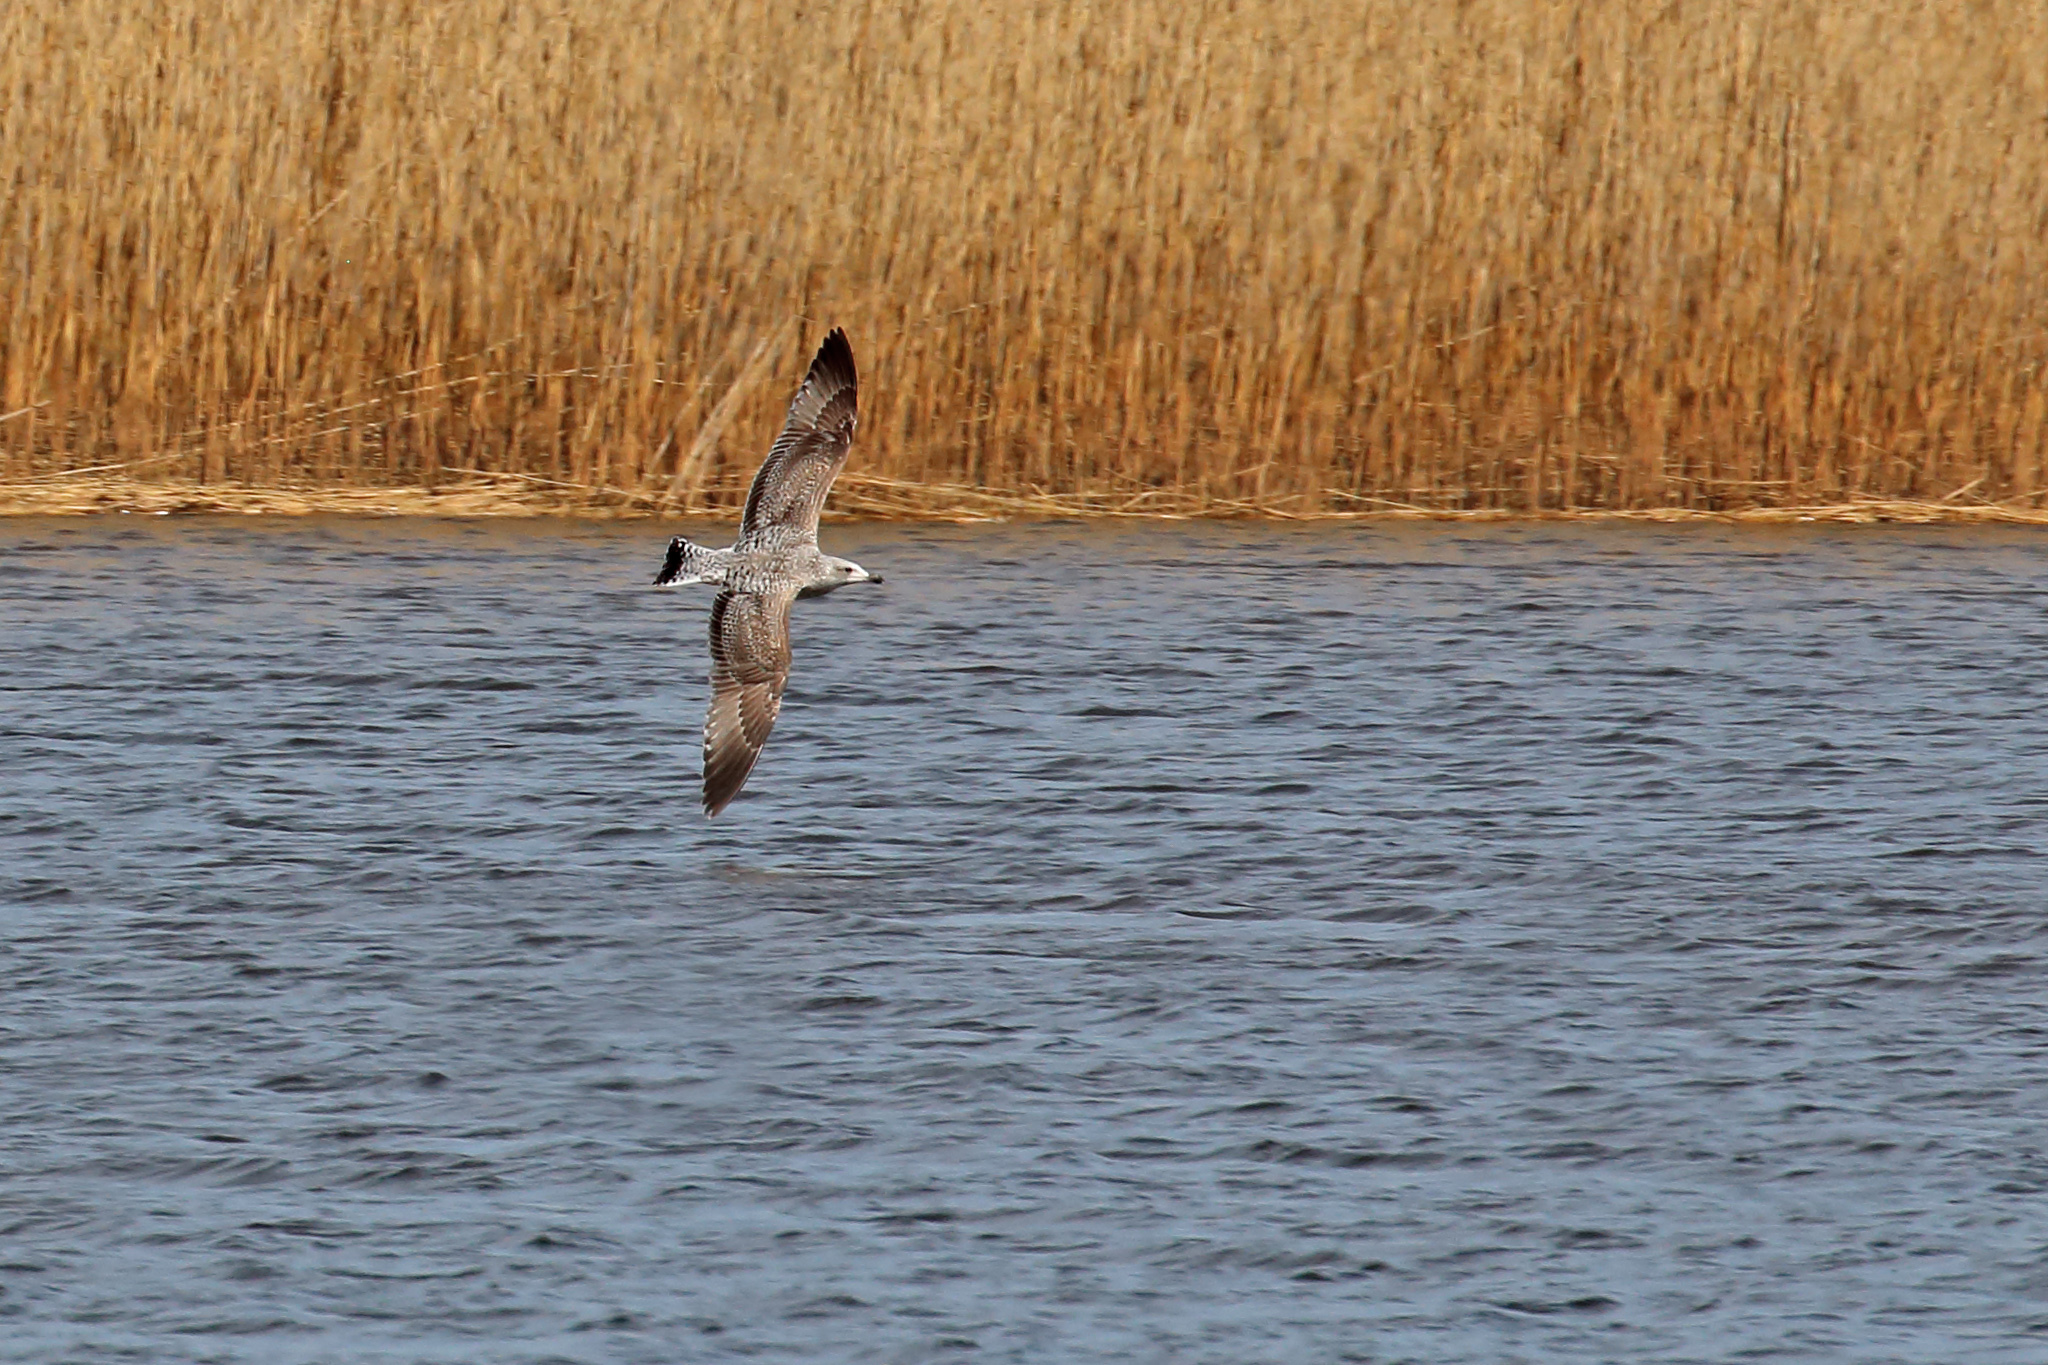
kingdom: Animalia
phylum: Chordata
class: Aves
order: Charadriiformes
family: Laridae
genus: Larus
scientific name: Larus argentatus
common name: Herring gull
